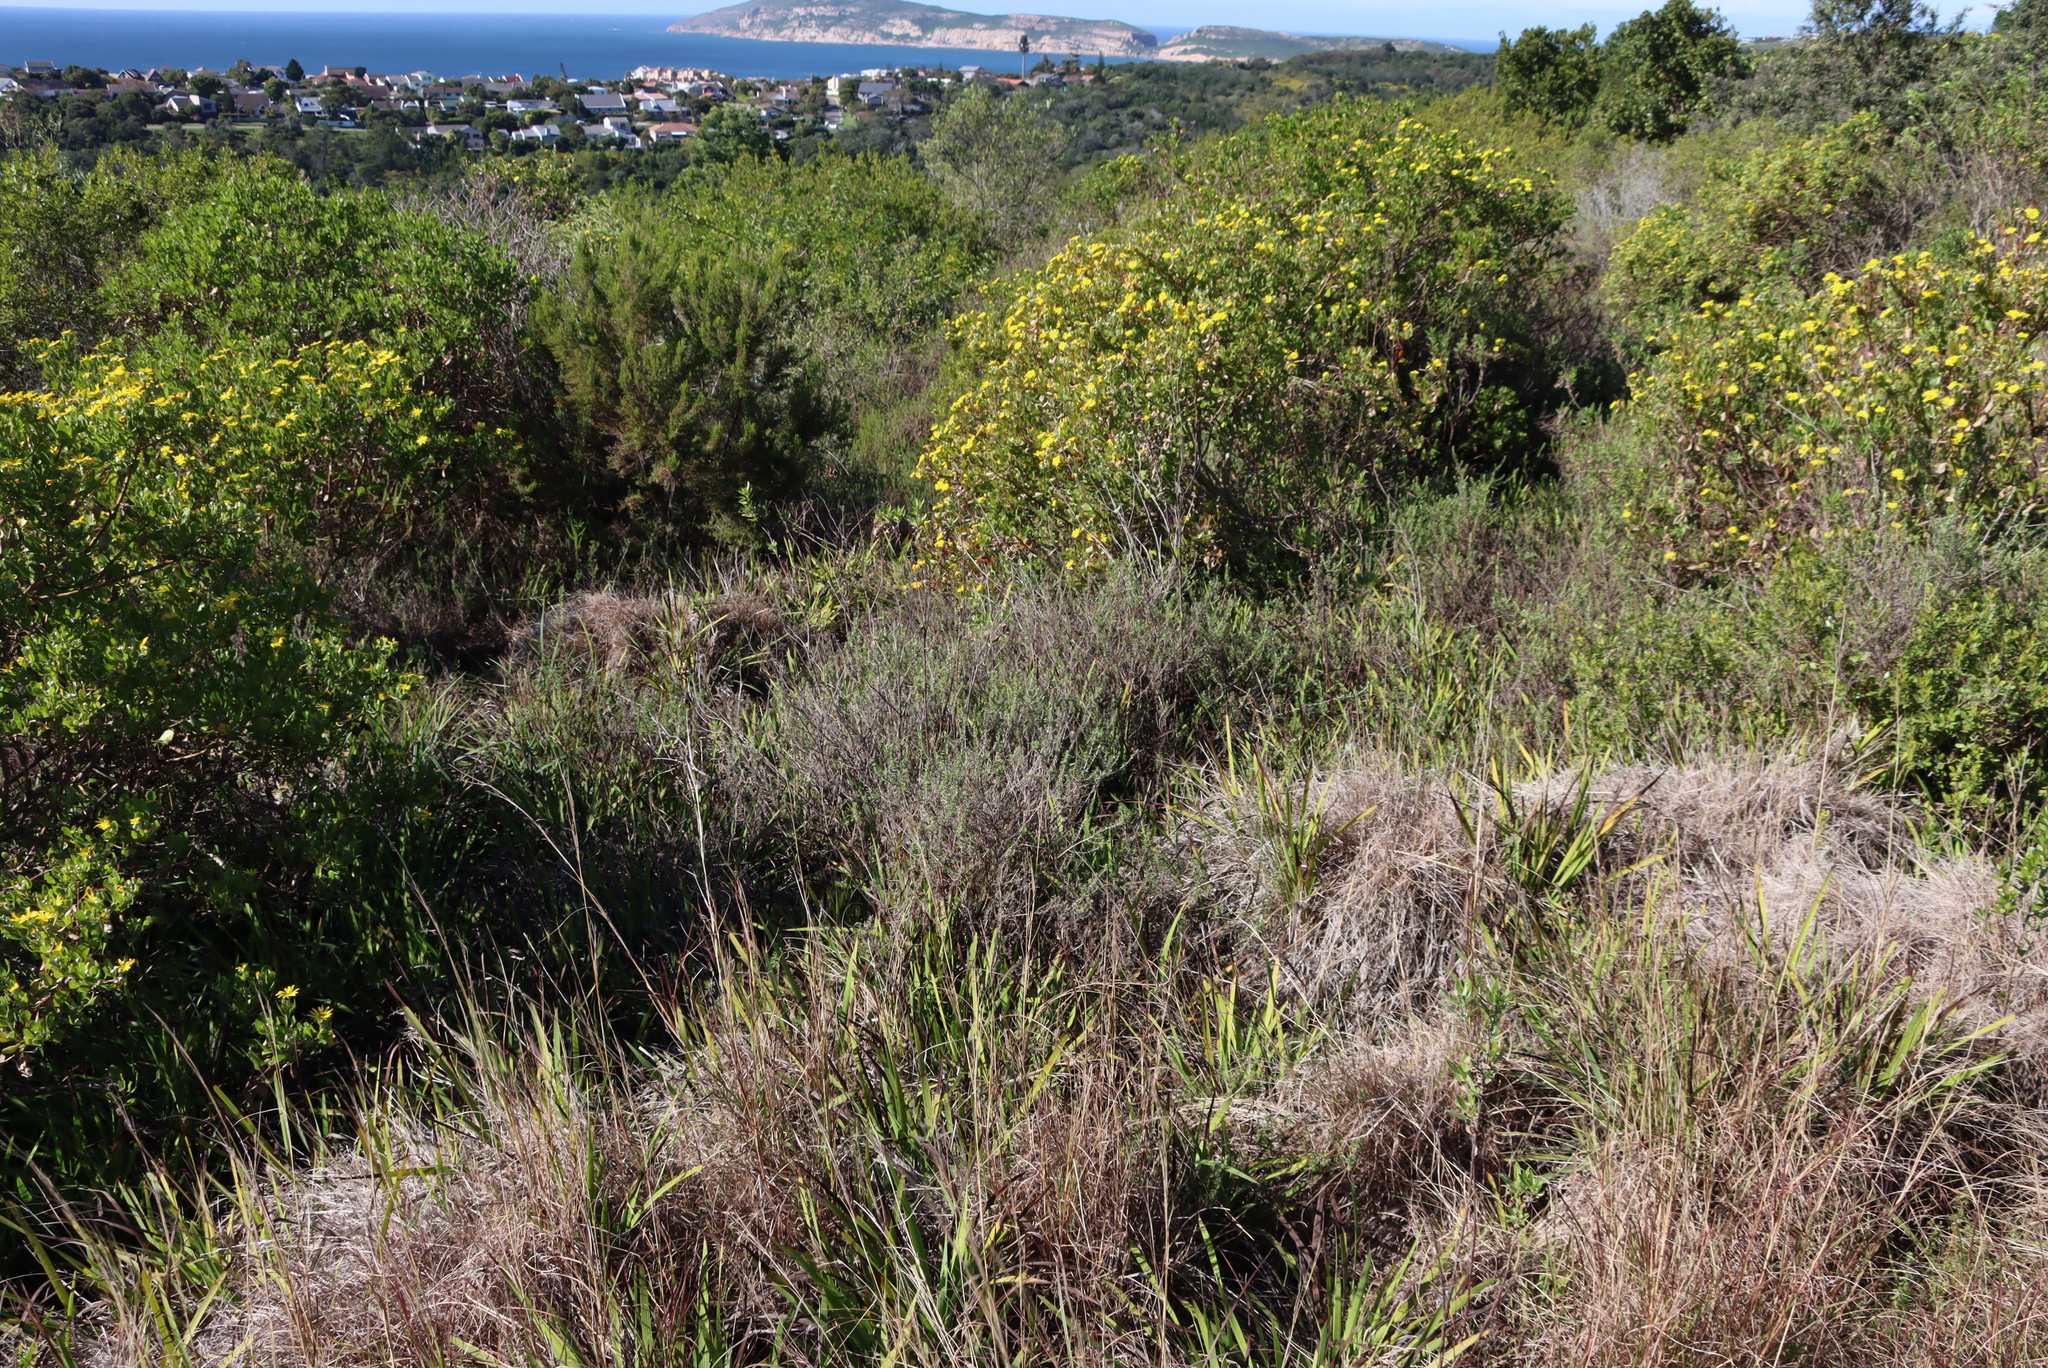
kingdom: Plantae
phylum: Tracheophyta
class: Magnoliopsida
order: Asterales
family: Asteraceae
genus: Helichrysum
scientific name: Helichrysum cymosum
